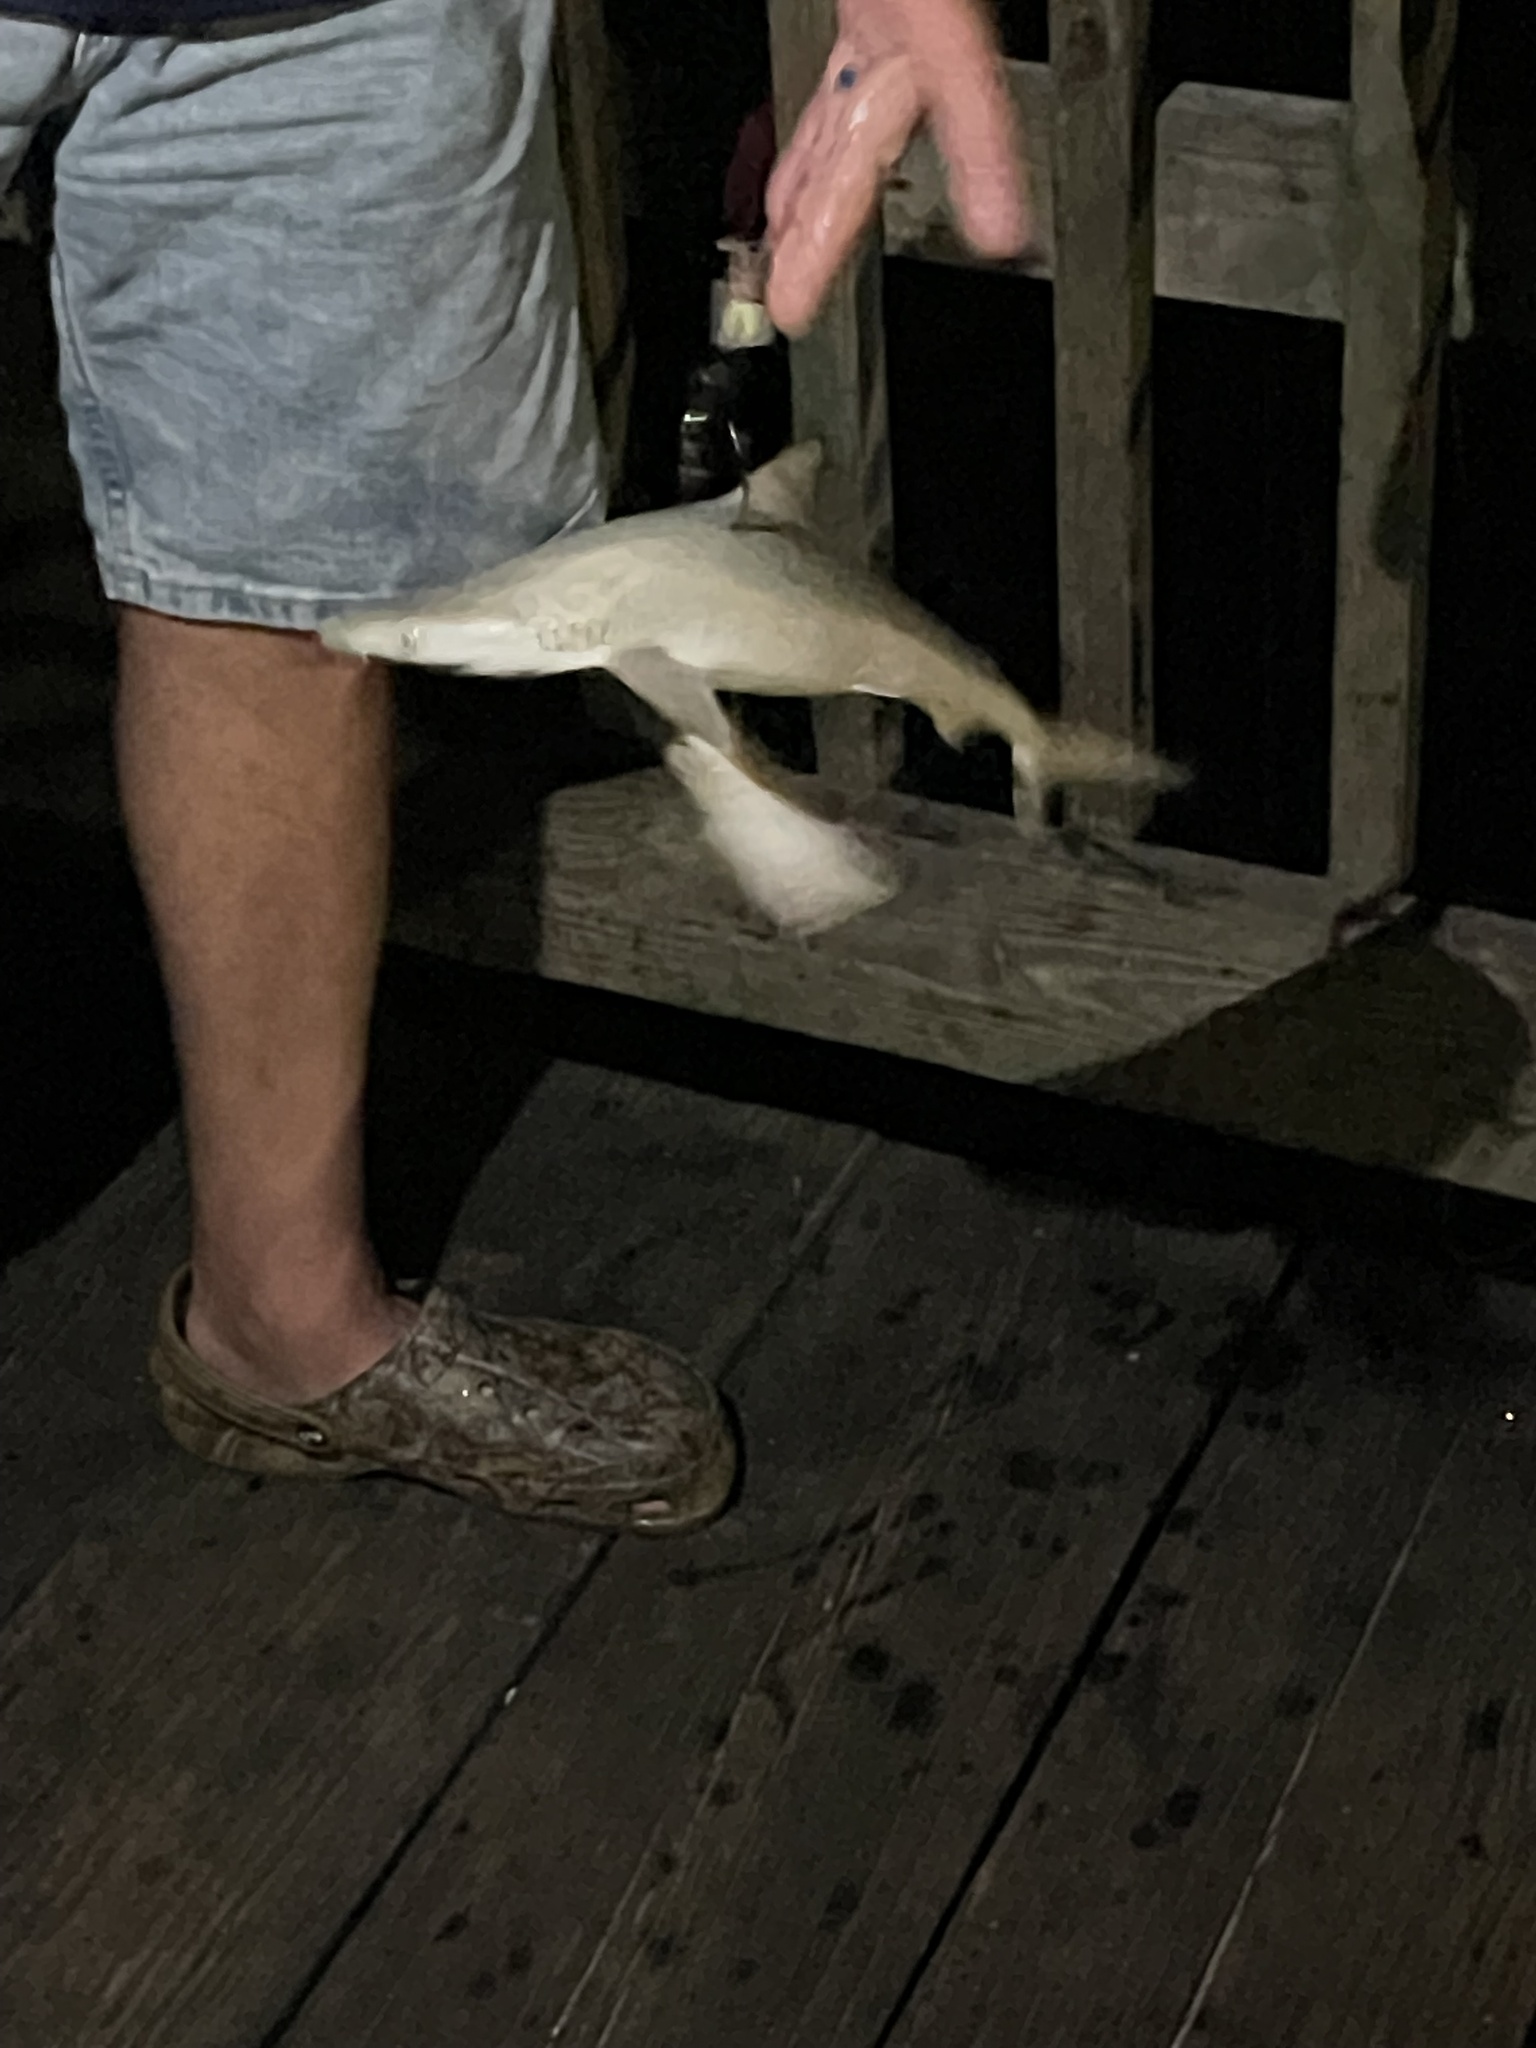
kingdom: Animalia
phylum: Chordata
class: Elasmobranchii
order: Carcharhiniformes
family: Carcharhinidae
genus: Rhizoprionodon
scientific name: Rhizoprionodon terraenovae
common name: Atlantic sharpnose shark
